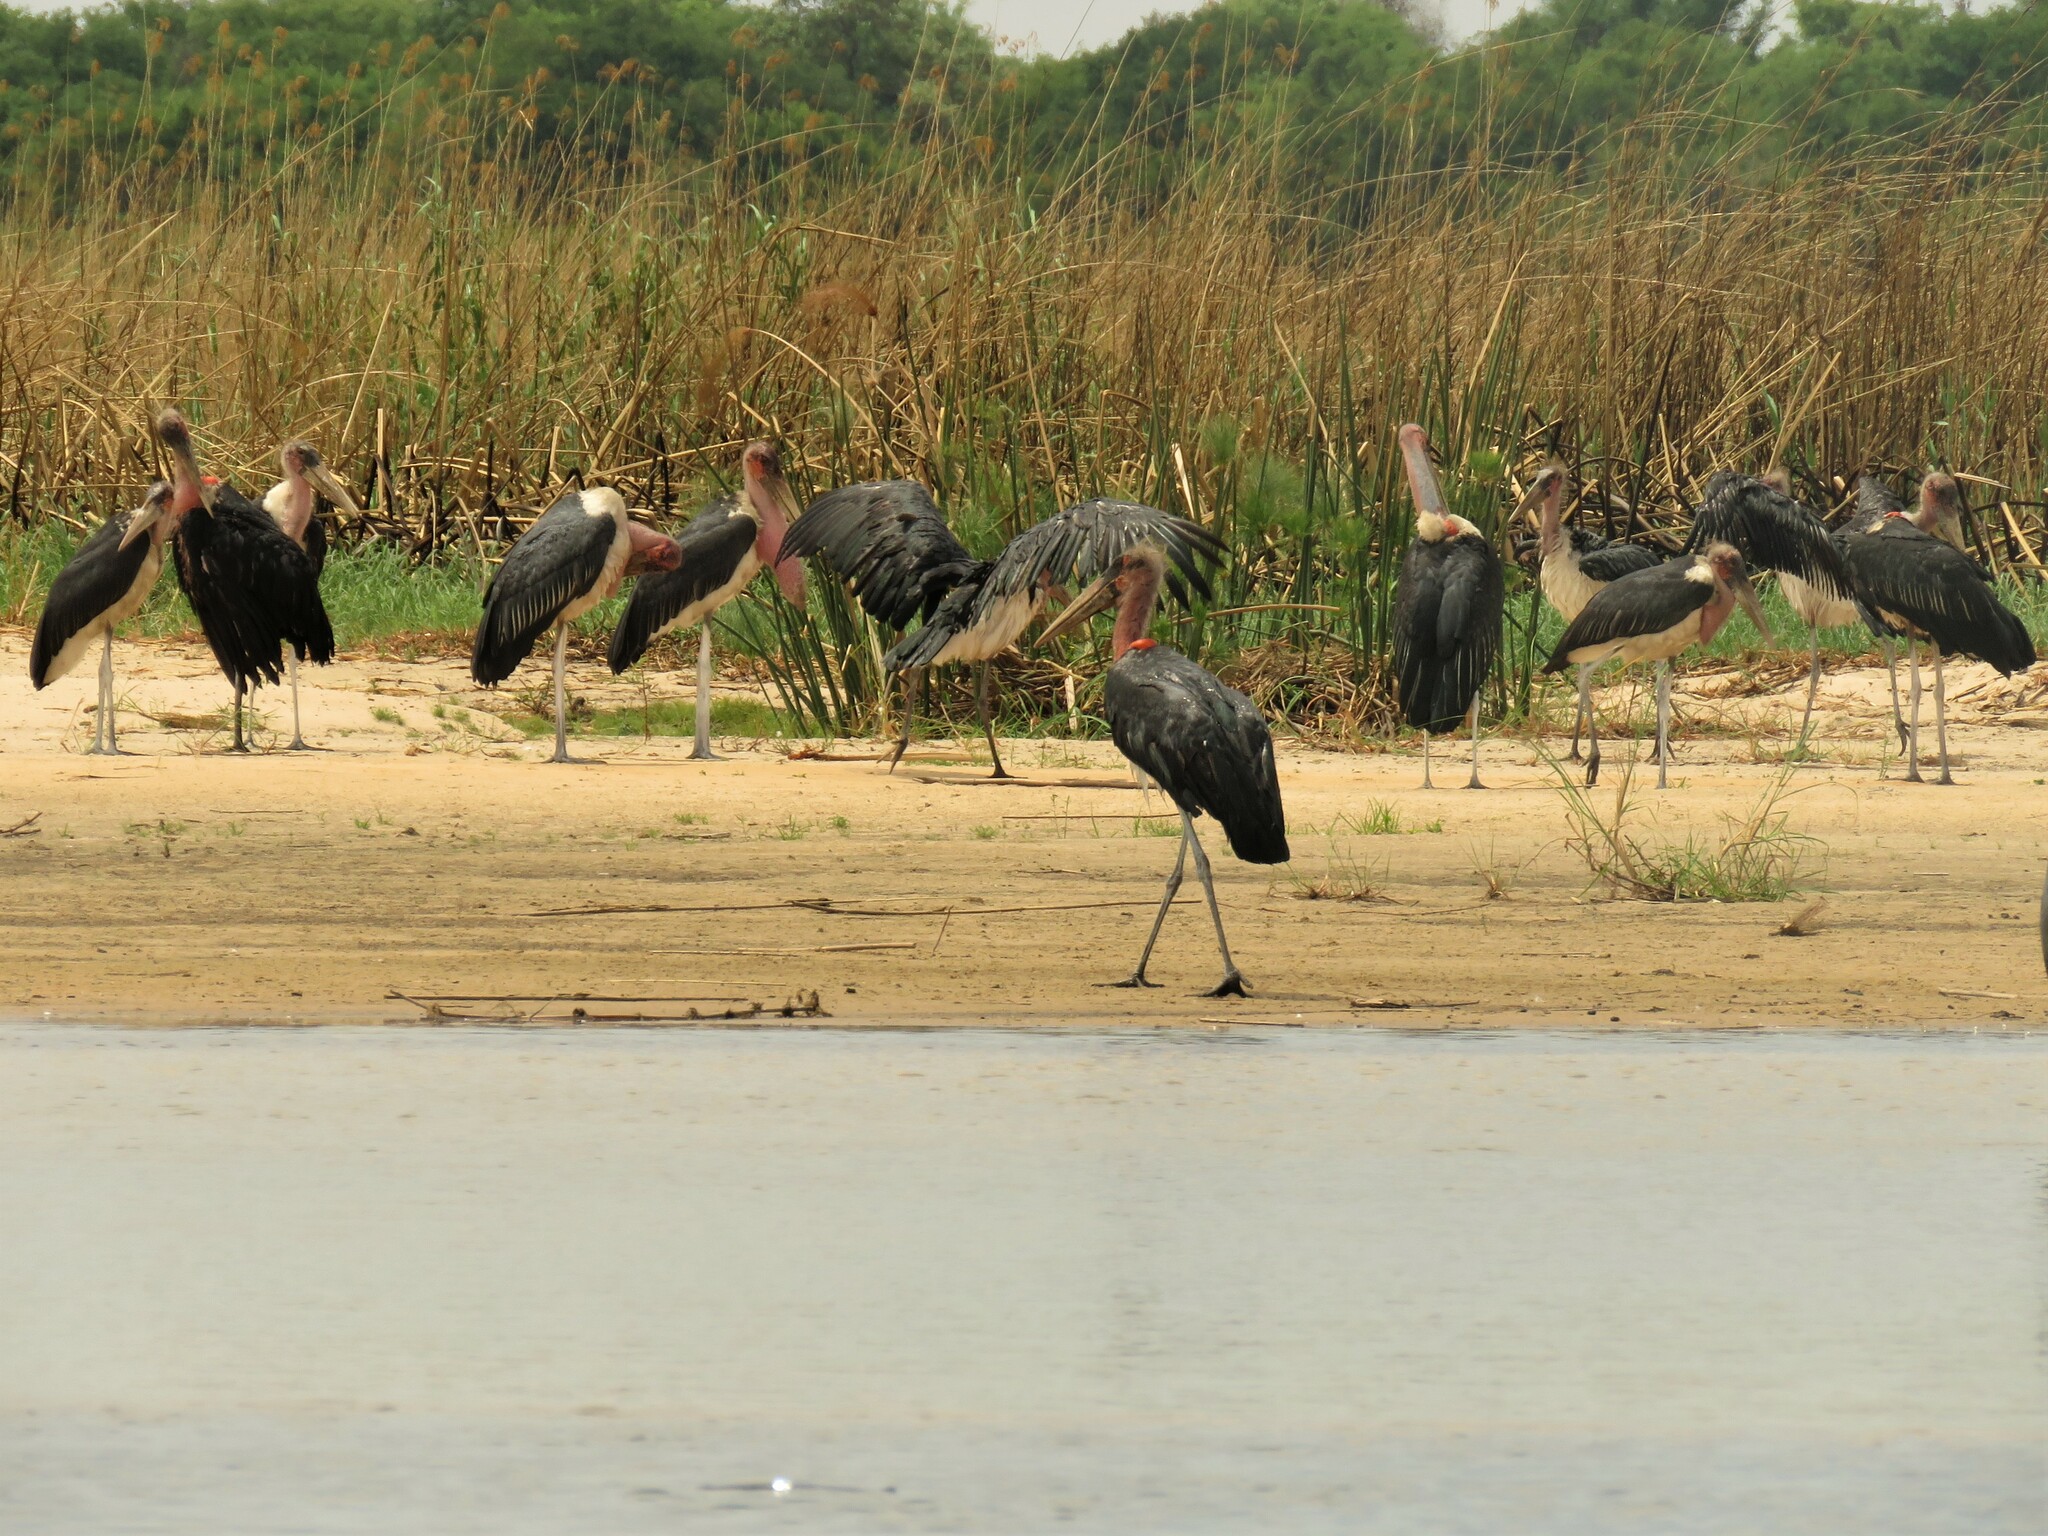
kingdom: Animalia
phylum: Chordata
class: Aves
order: Ciconiiformes
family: Ciconiidae
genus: Leptoptilos
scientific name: Leptoptilos crumenifer
